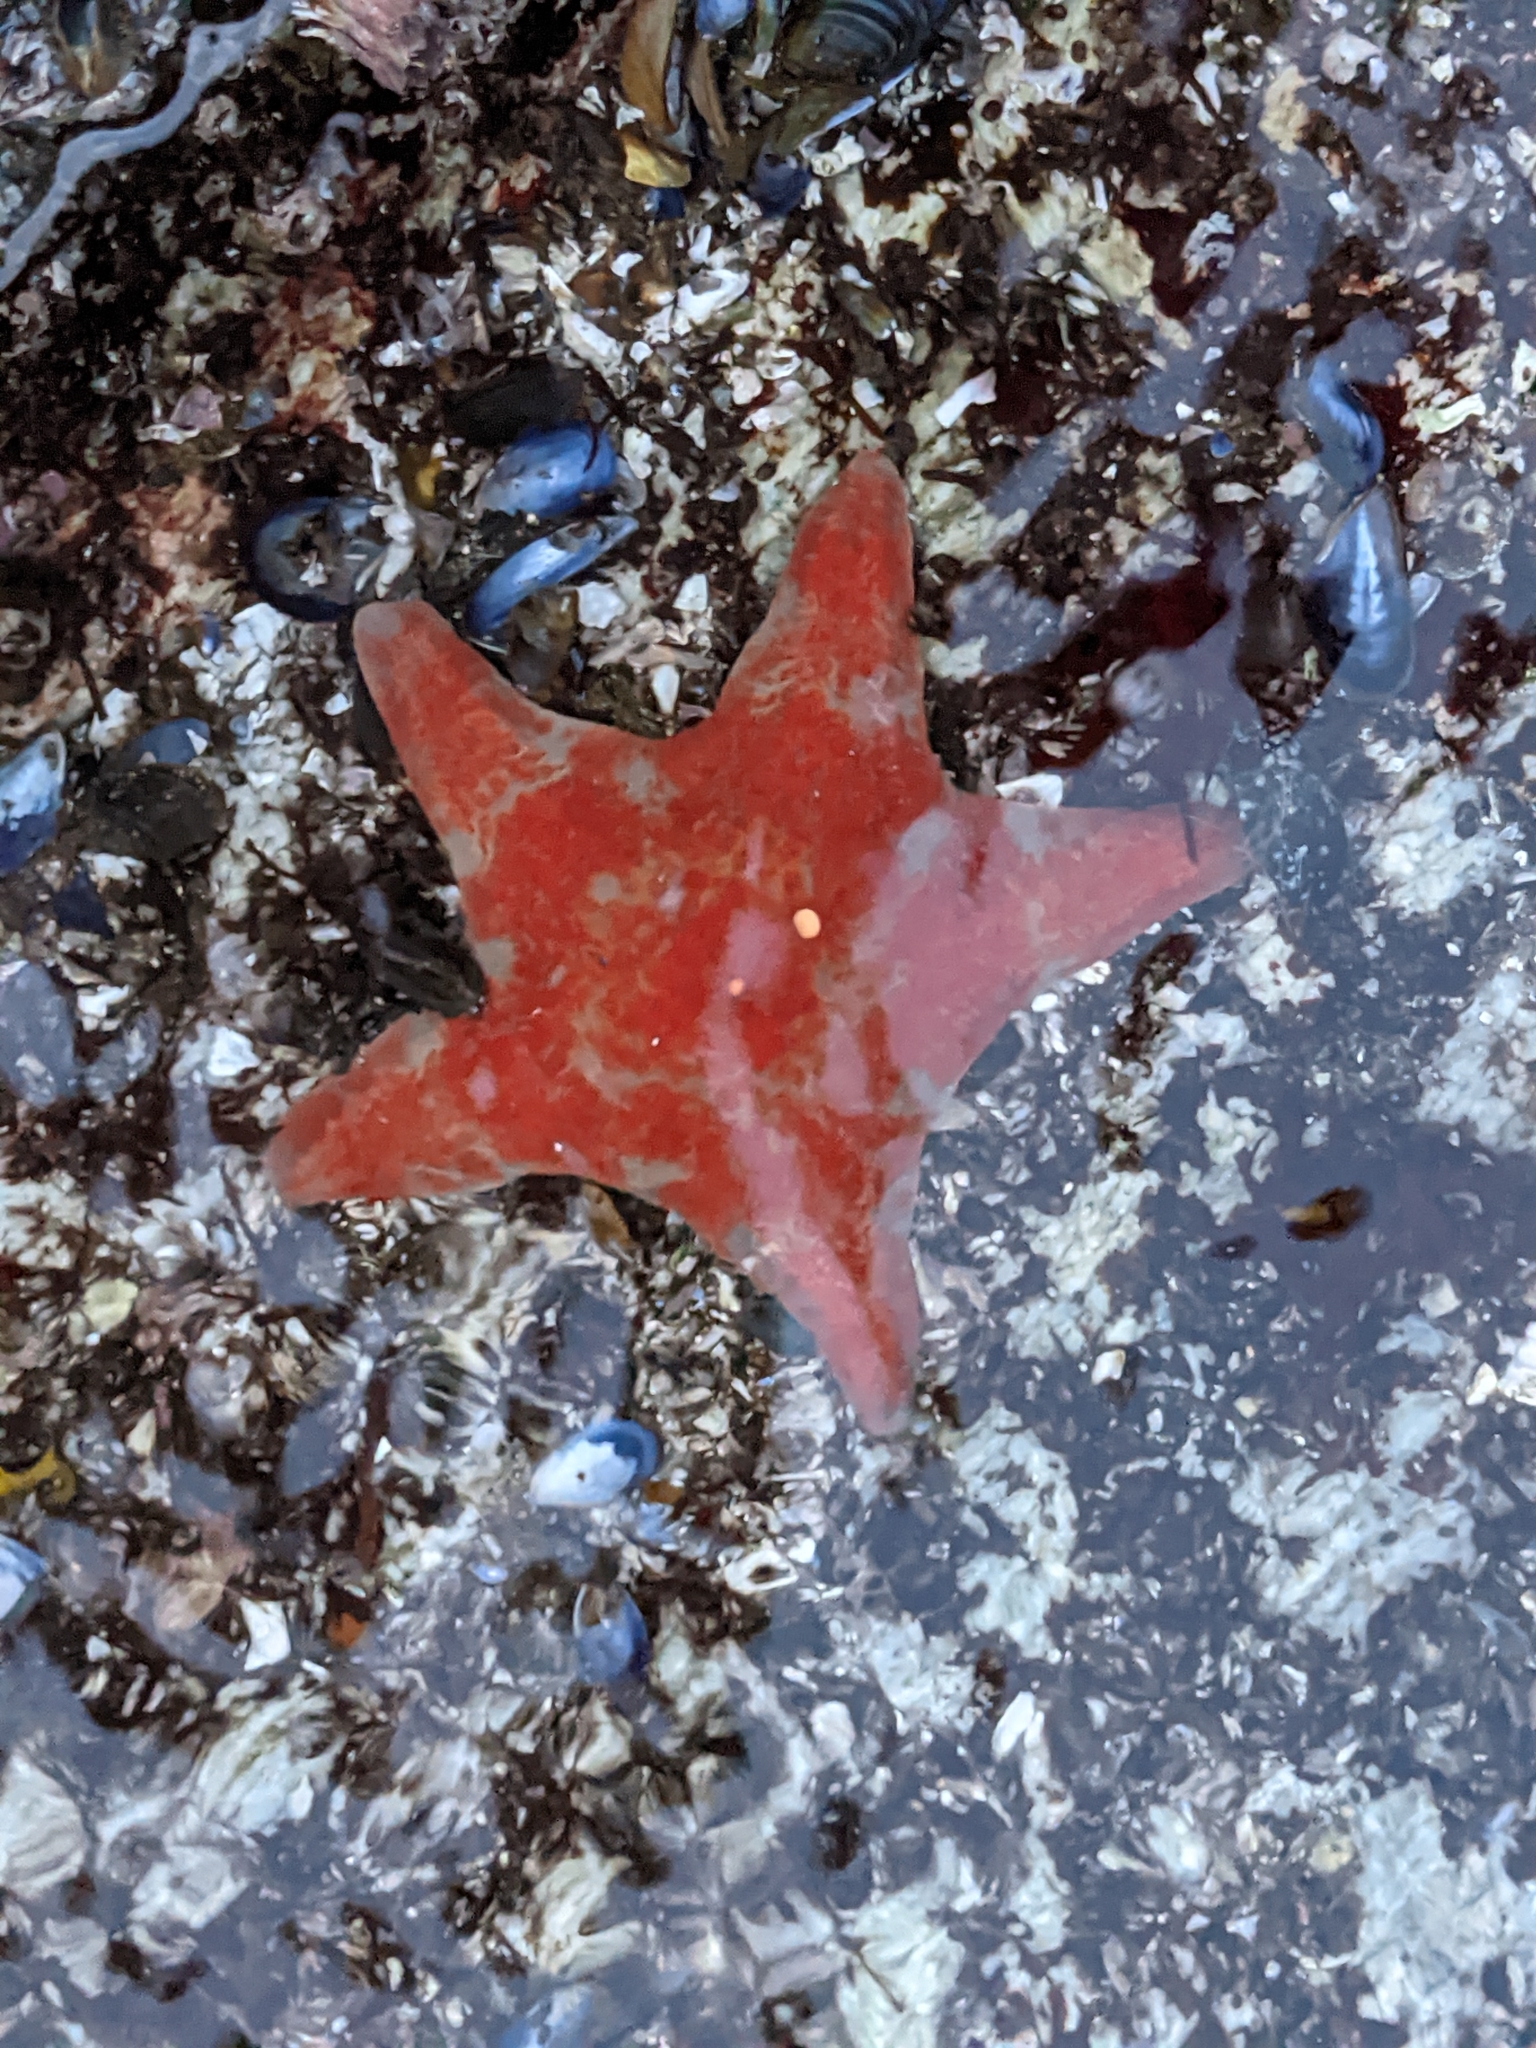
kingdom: Animalia
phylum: Echinodermata
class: Asteroidea
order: Valvatida
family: Asteropseidae
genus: Dermasterias
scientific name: Dermasterias imbricata
